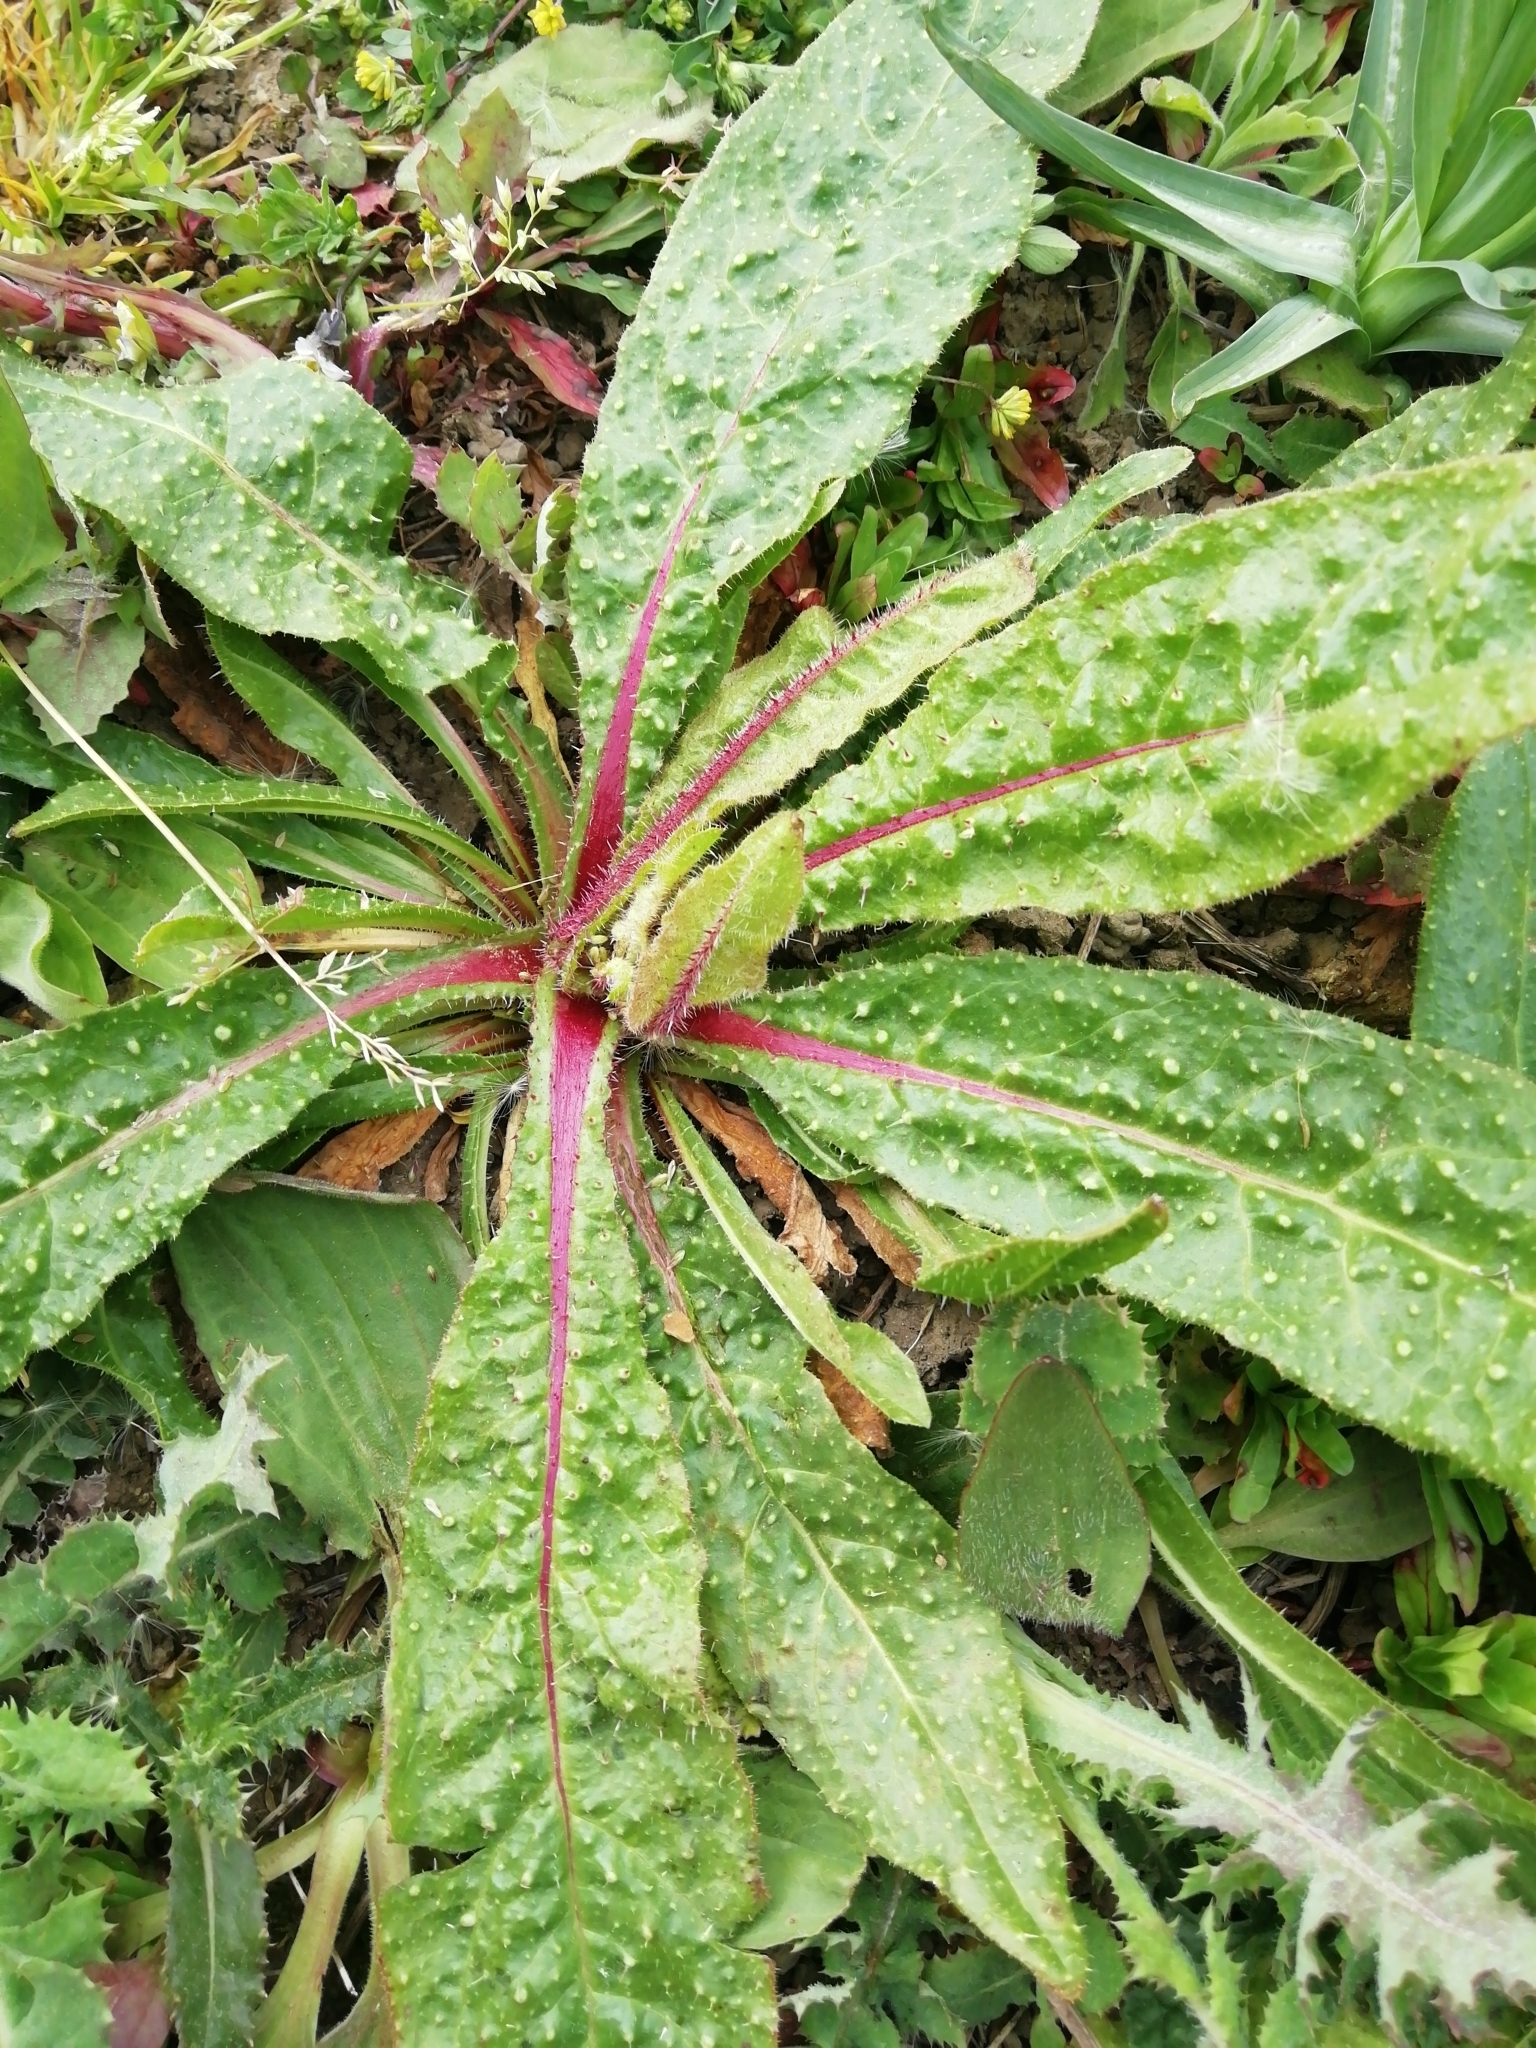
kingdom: Plantae
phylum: Tracheophyta
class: Magnoliopsida
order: Asterales
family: Asteraceae
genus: Helminthotheca
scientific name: Helminthotheca echioides
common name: Ox-tongue
